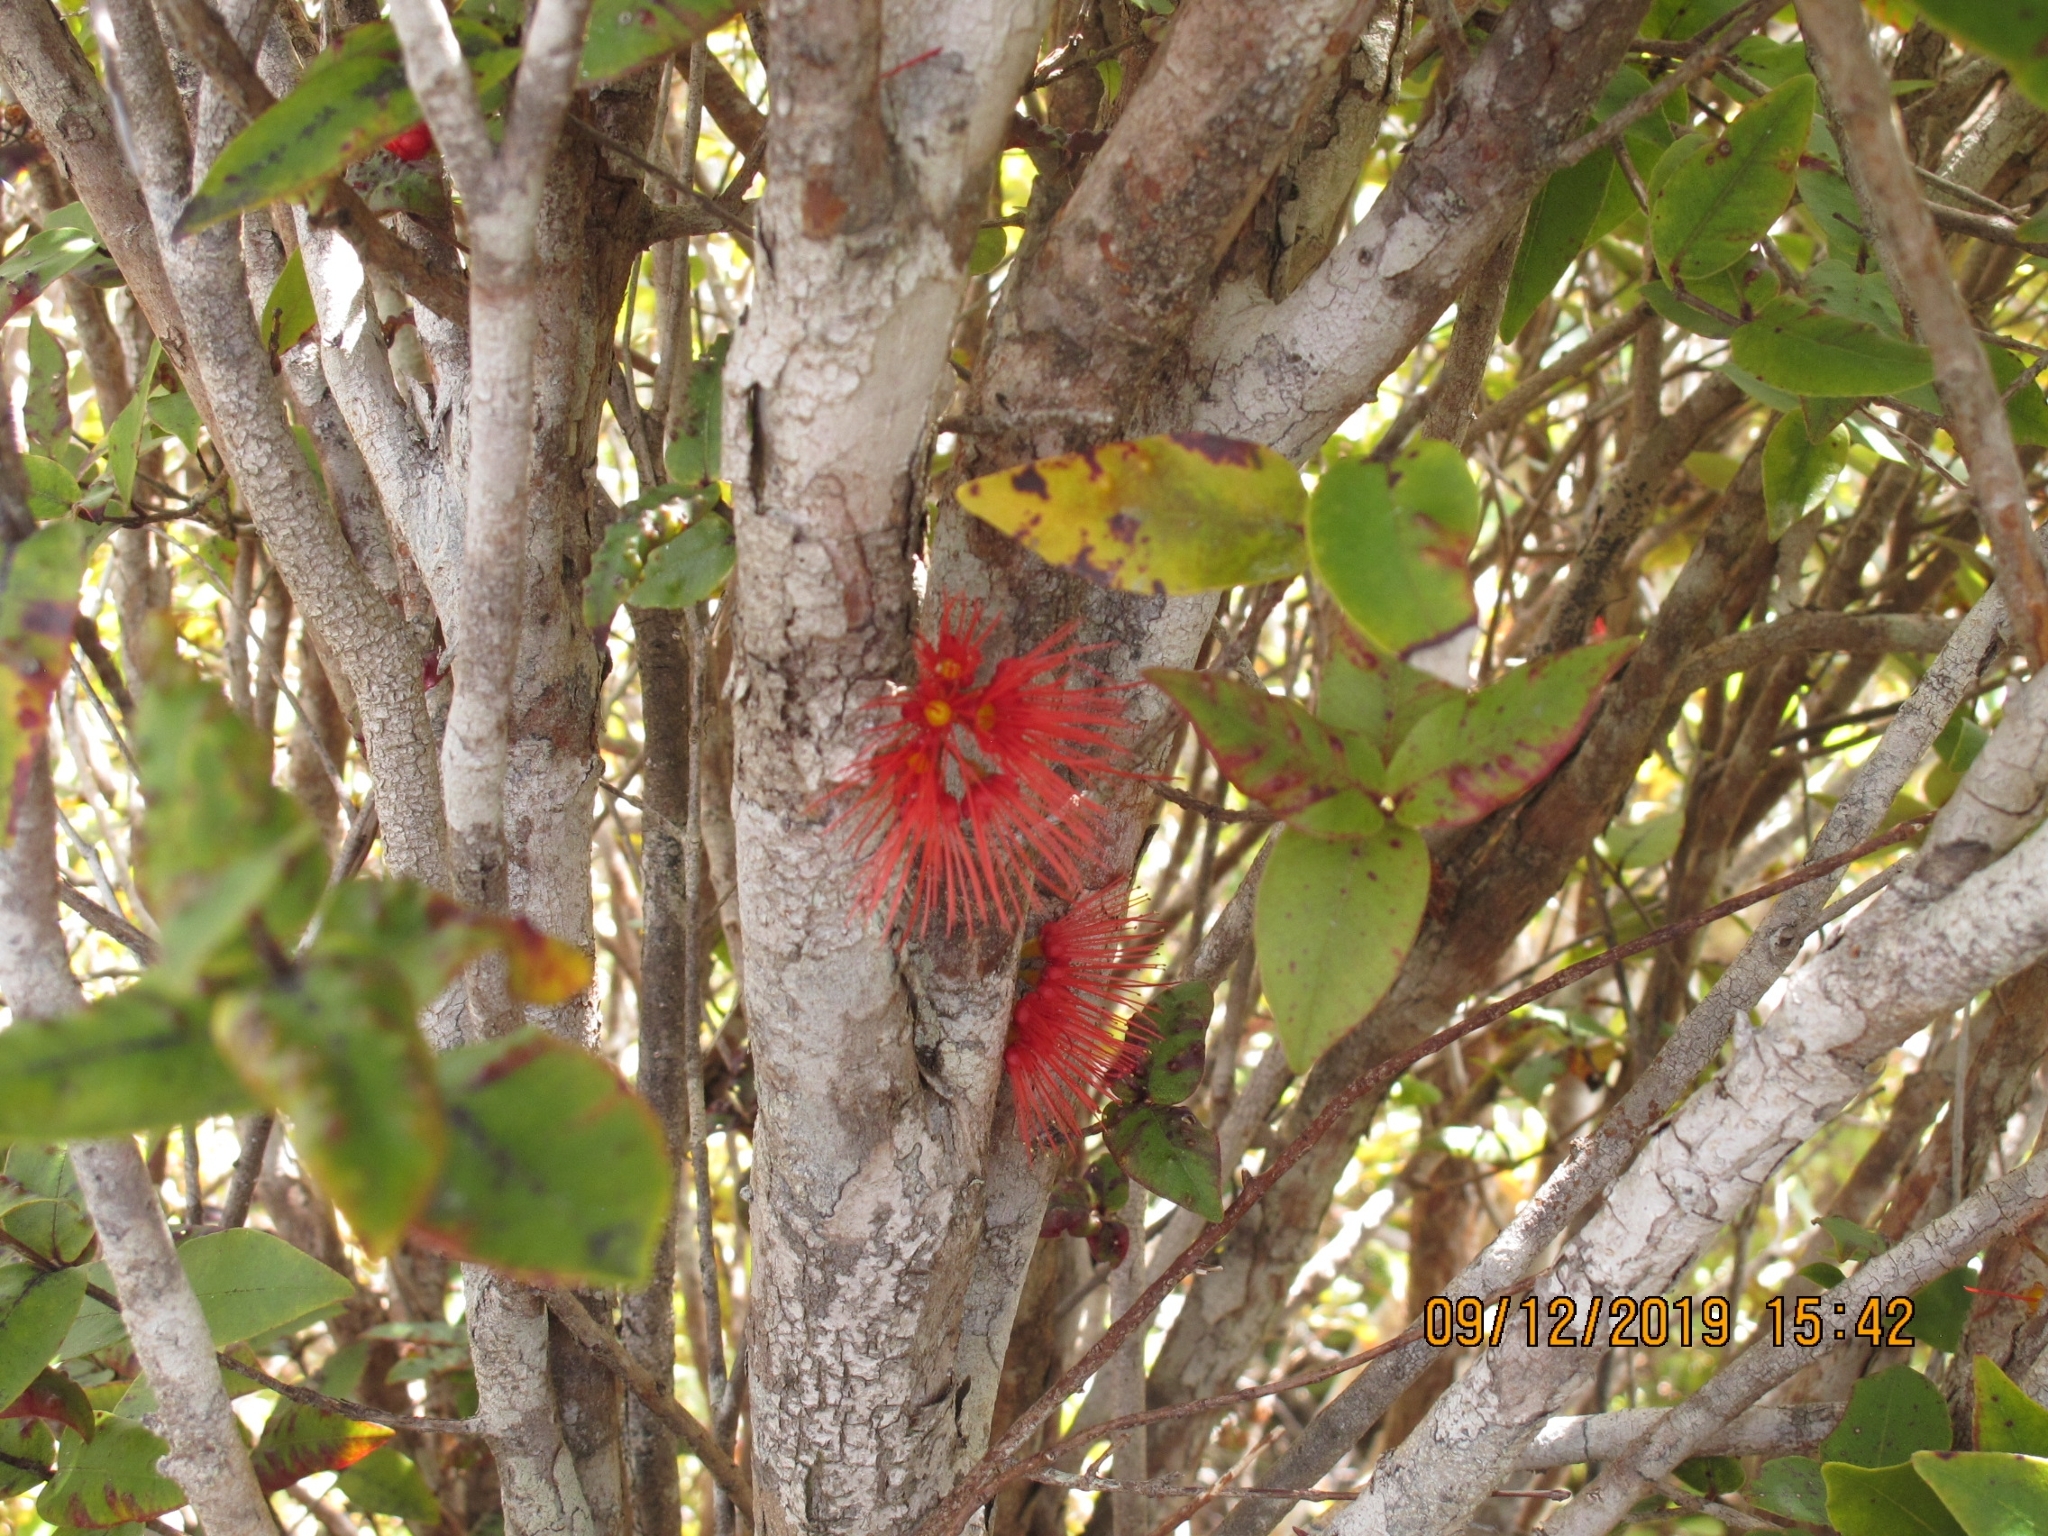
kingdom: Plantae
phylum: Tracheophyta
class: Magnoliopsida
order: Myrtales
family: Myrtaceae
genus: Metrosideros
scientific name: Metrosideros umbellata
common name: Southern rata
